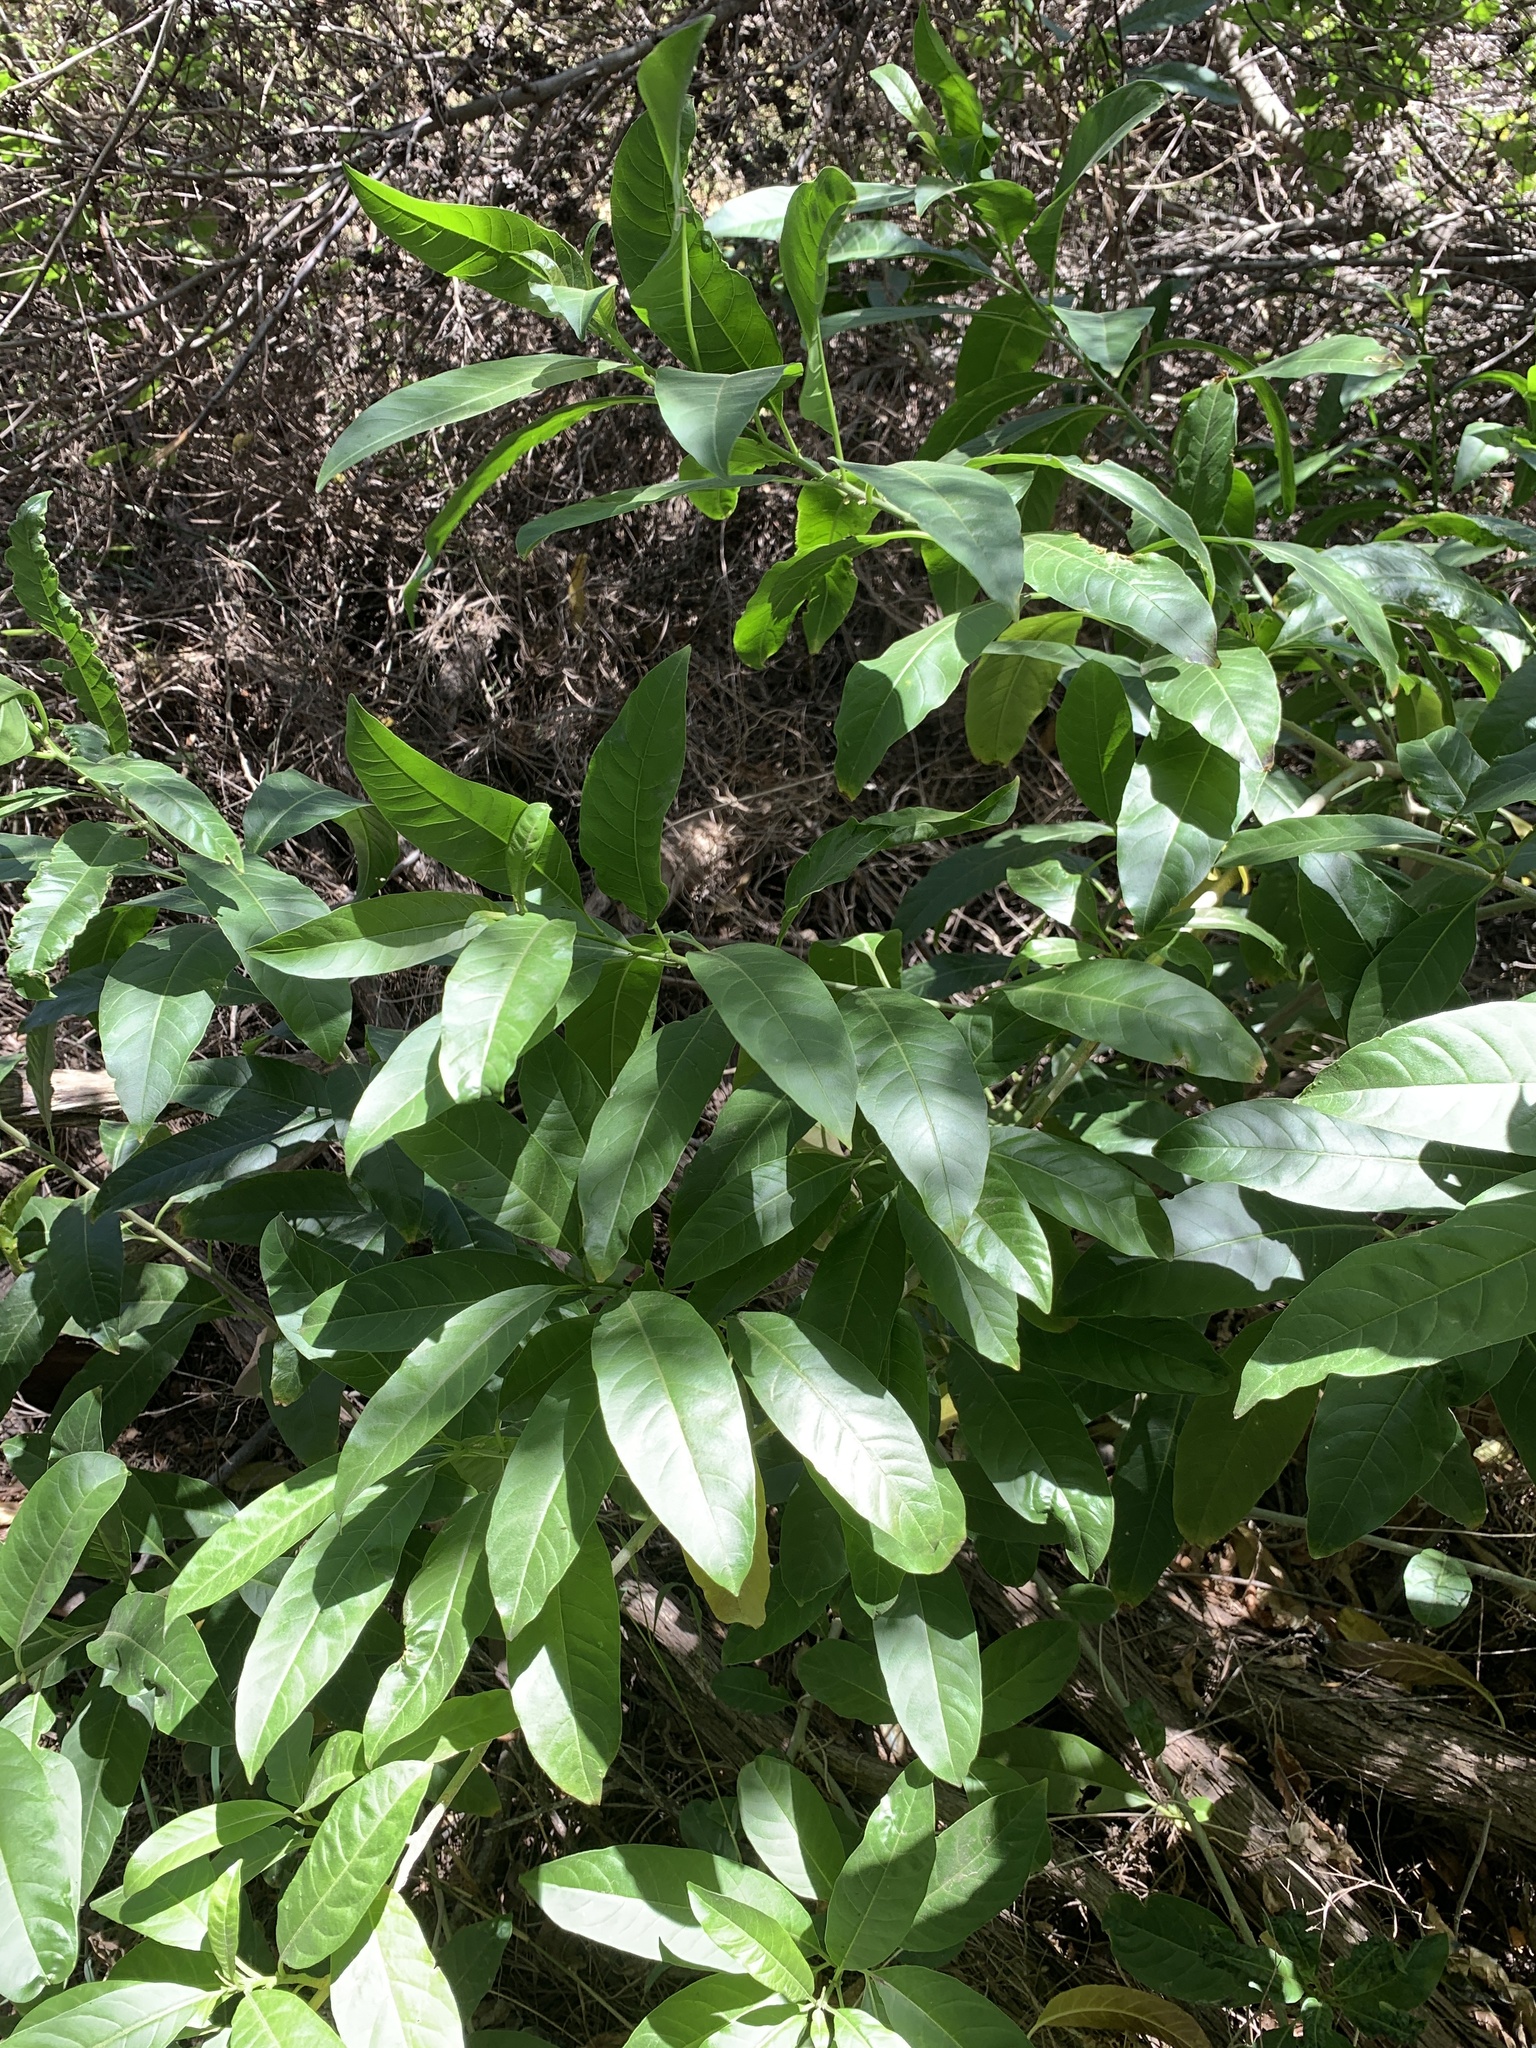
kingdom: Plantae
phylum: Tracheophyta
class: Magnoliopsida
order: Solanales
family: Solanaceae
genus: Cestrum
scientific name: Cestrum laevigatum
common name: Inkberry
